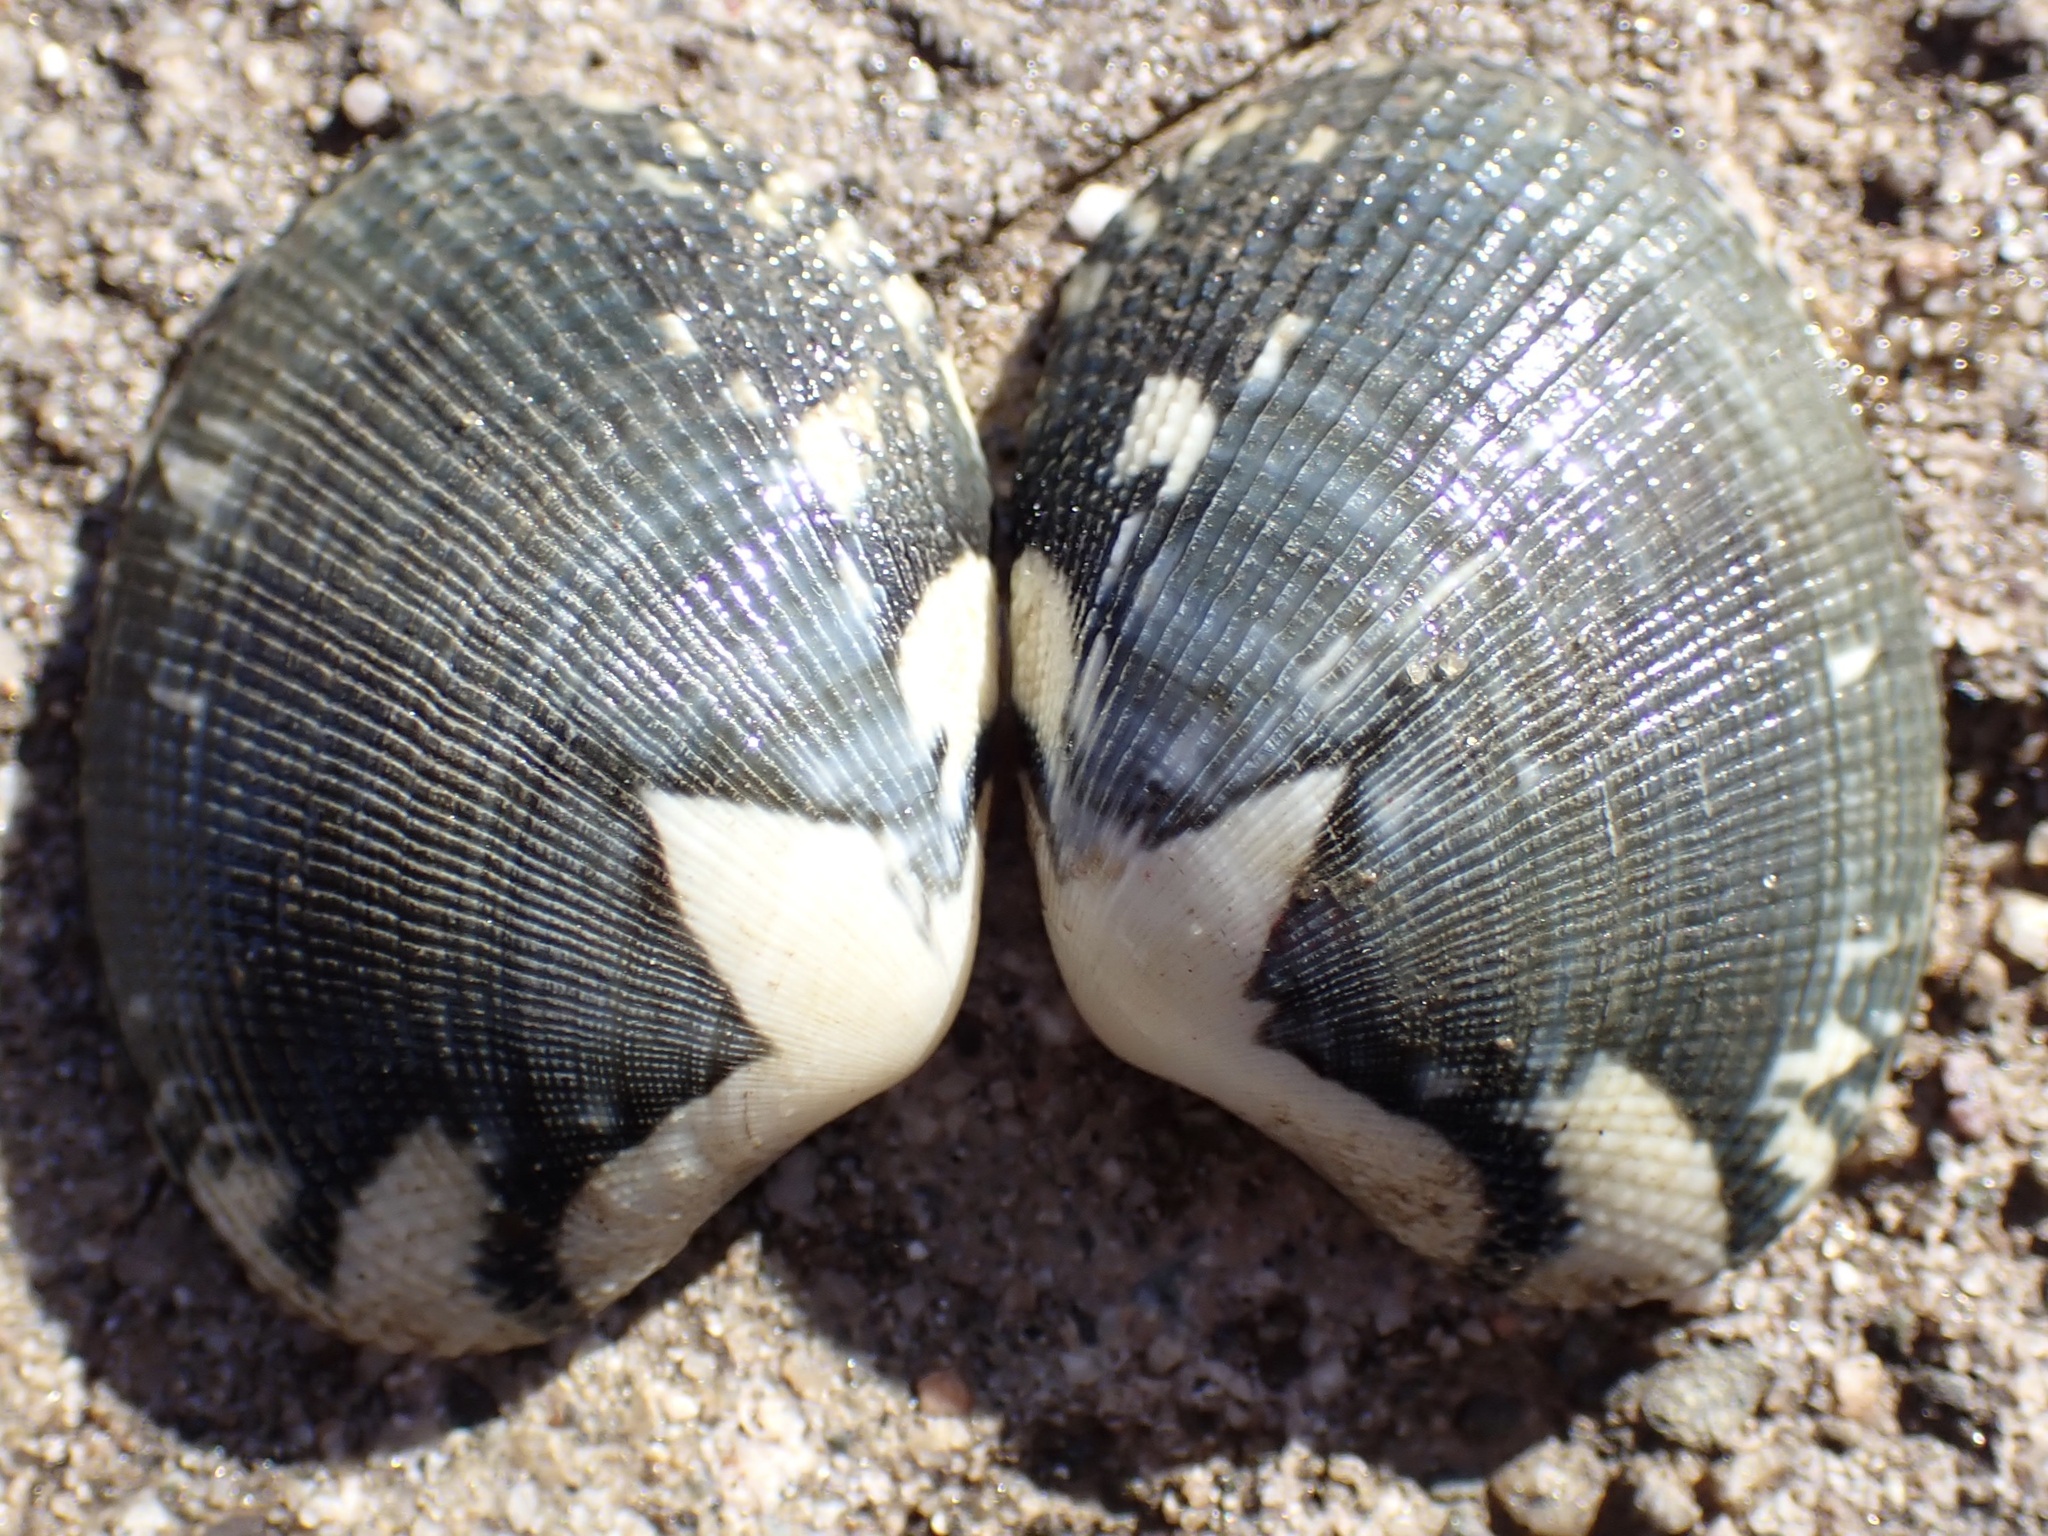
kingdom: Animalia
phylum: Mollusca
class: Bivalvia
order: Venerida
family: Veneridae
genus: Ruditapes
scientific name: Ruditapes philippinarum
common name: Manila clam
